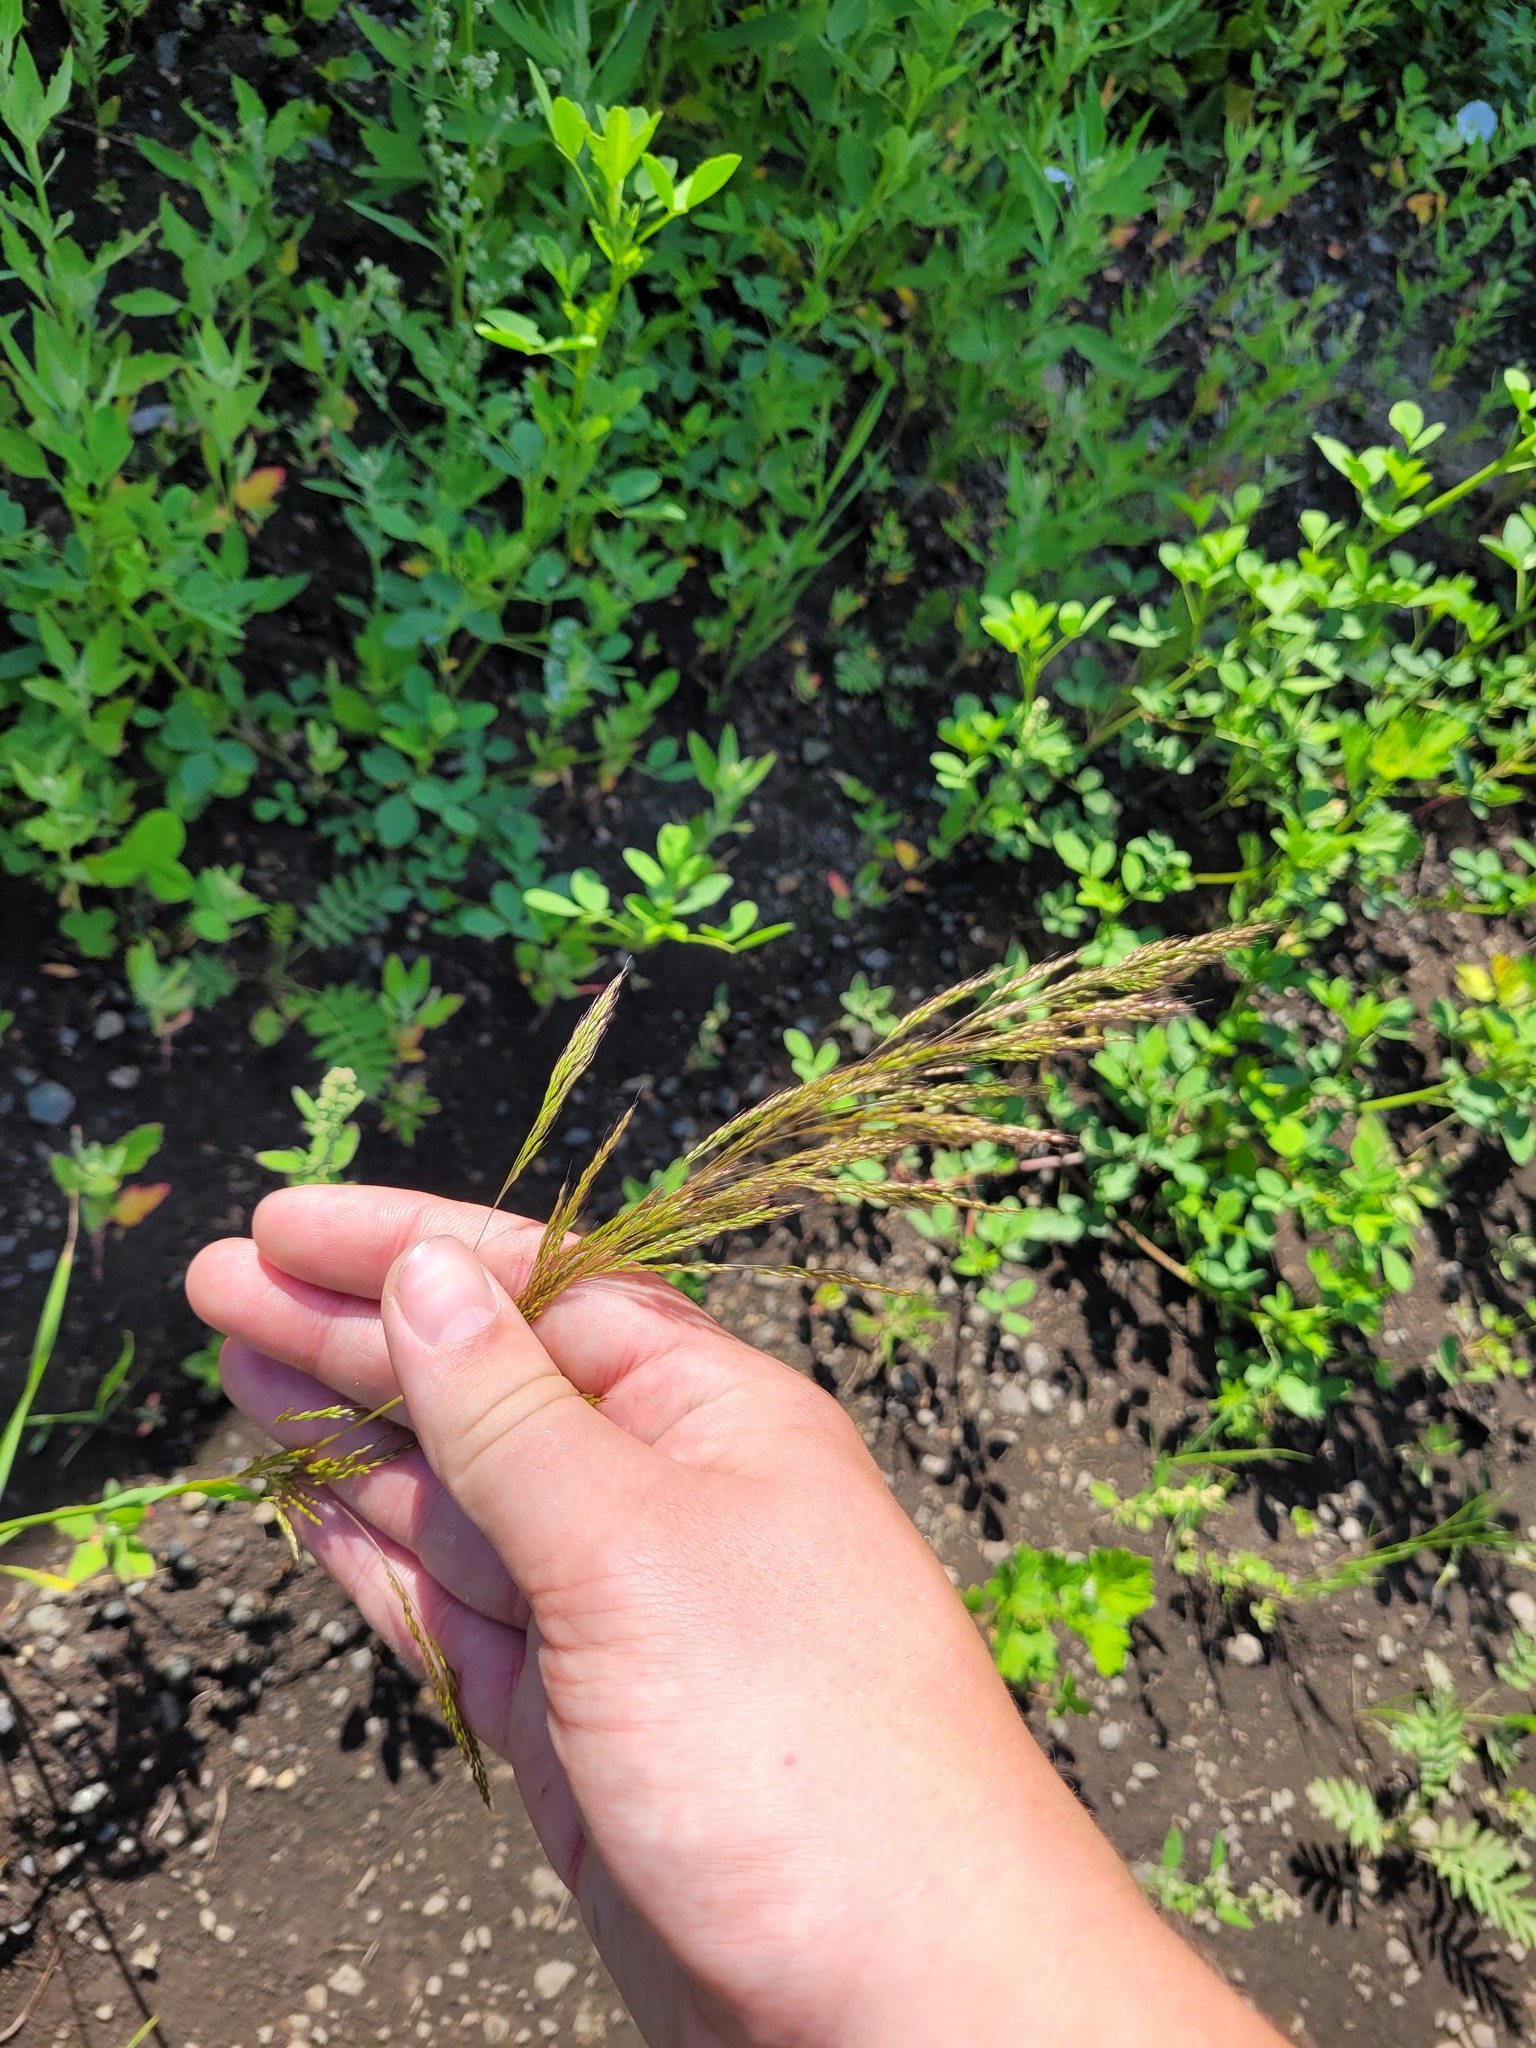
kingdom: Plantae
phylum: Tracheophyta
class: Liliopsida
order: Poales
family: Poaceae
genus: Apera
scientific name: Apera spica-venti
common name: Loose silky-bent
